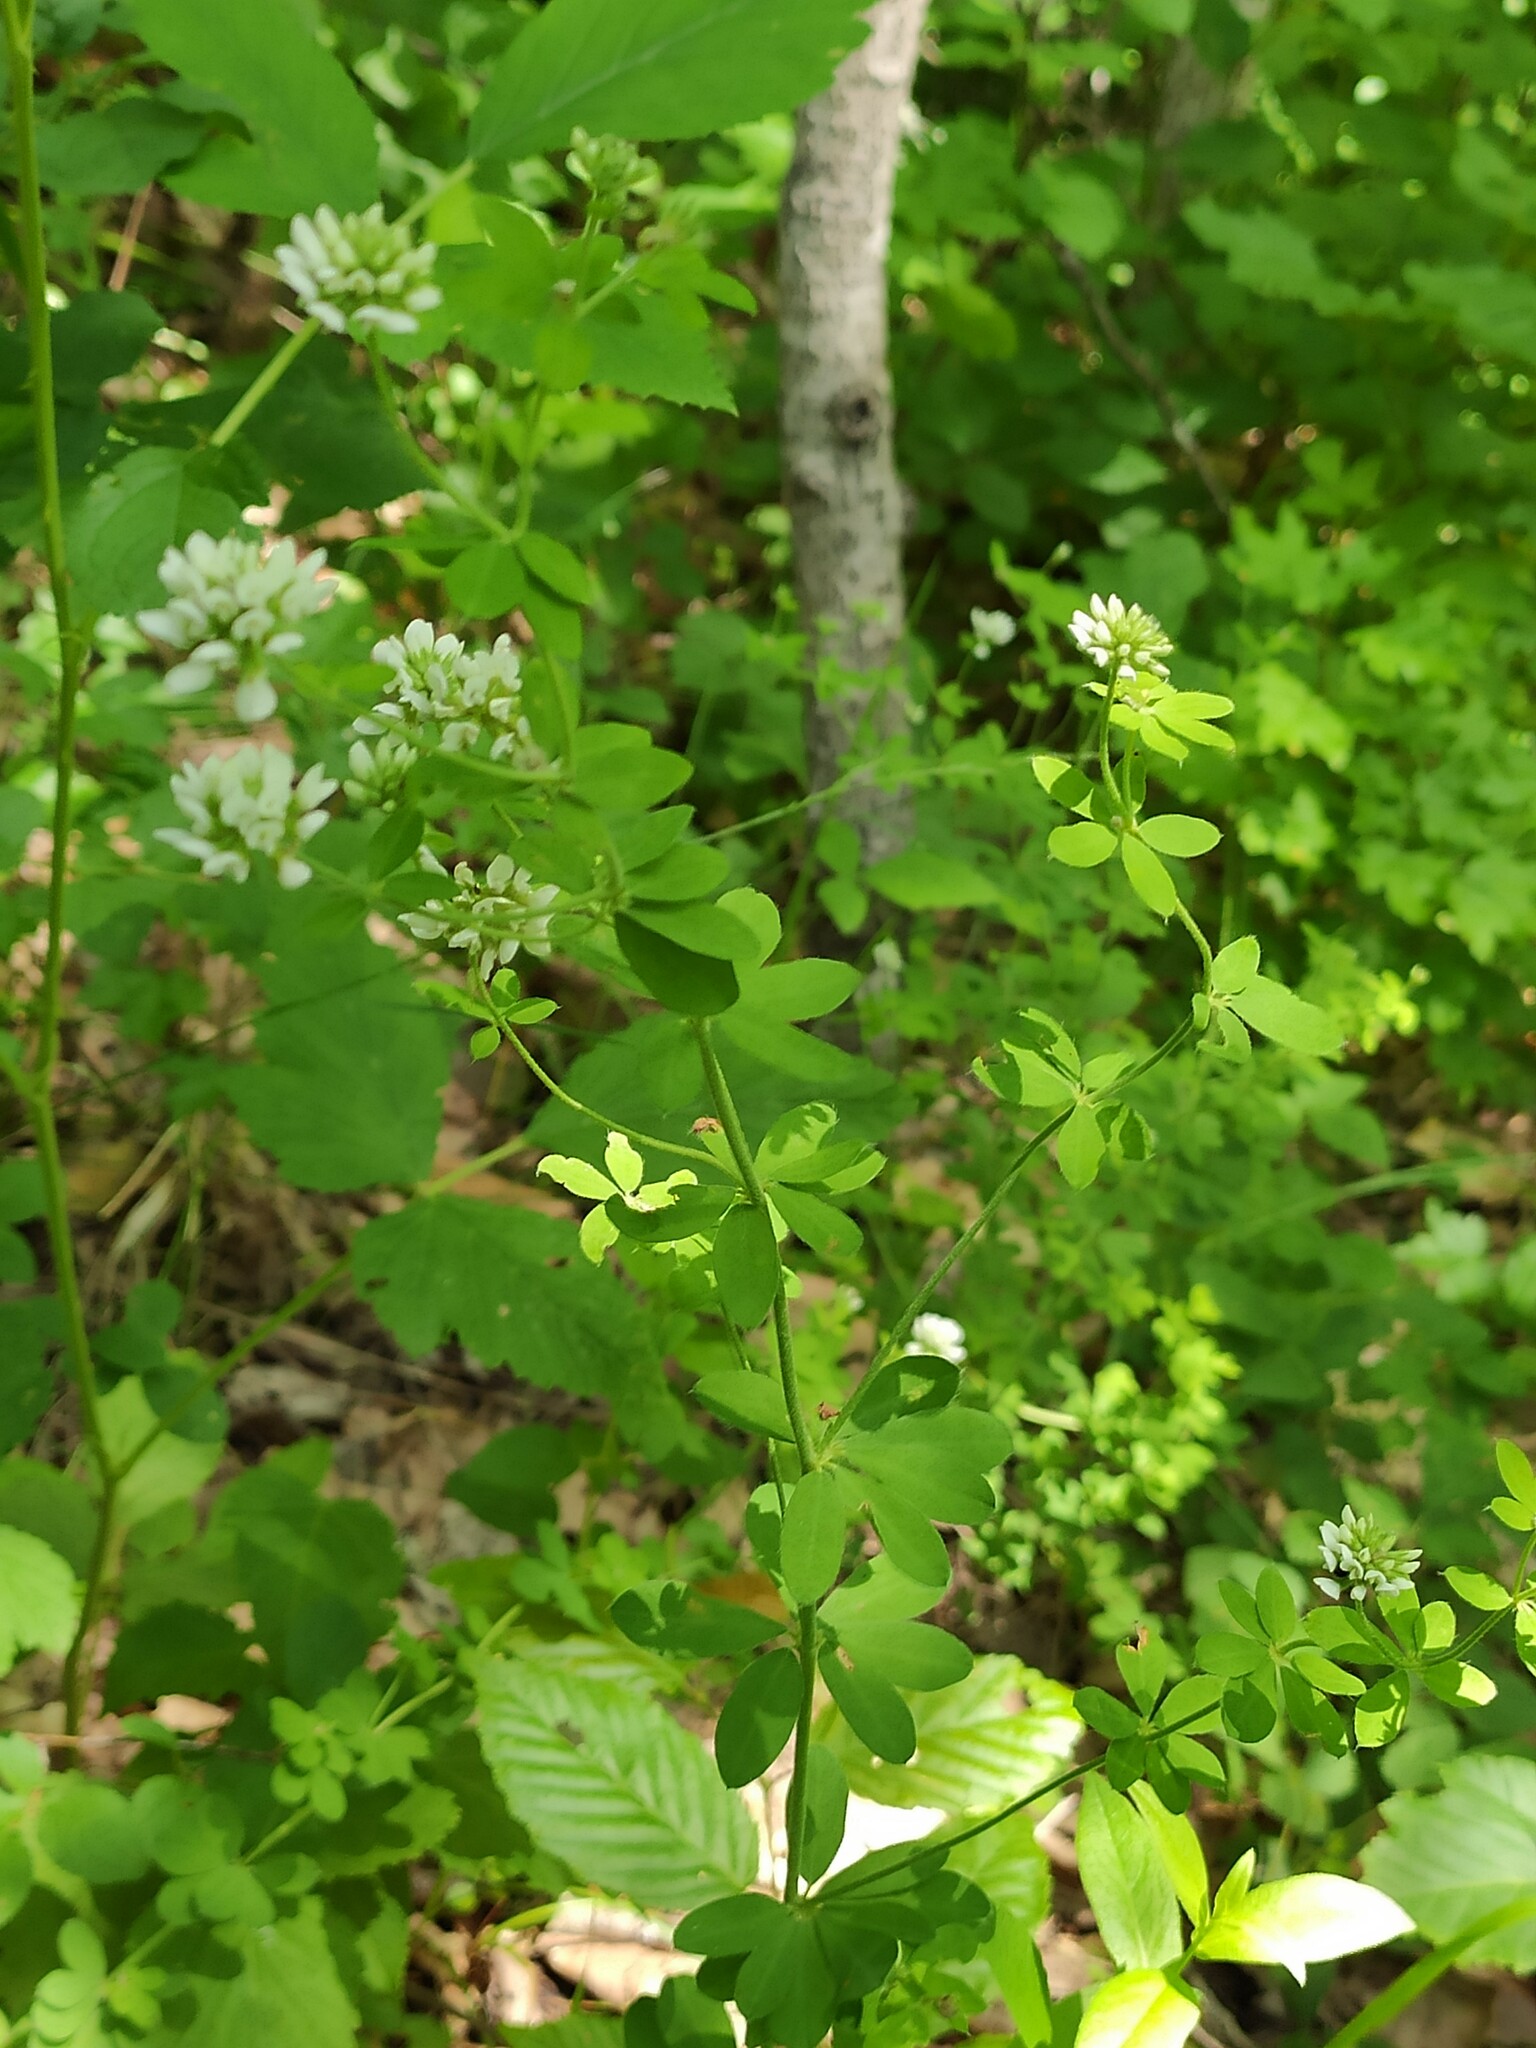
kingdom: Plantae
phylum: Tracheophyta
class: Magnoliopsida
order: Fabales
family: Fabaceae
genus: Lotus
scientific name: Lotus herbaceus
